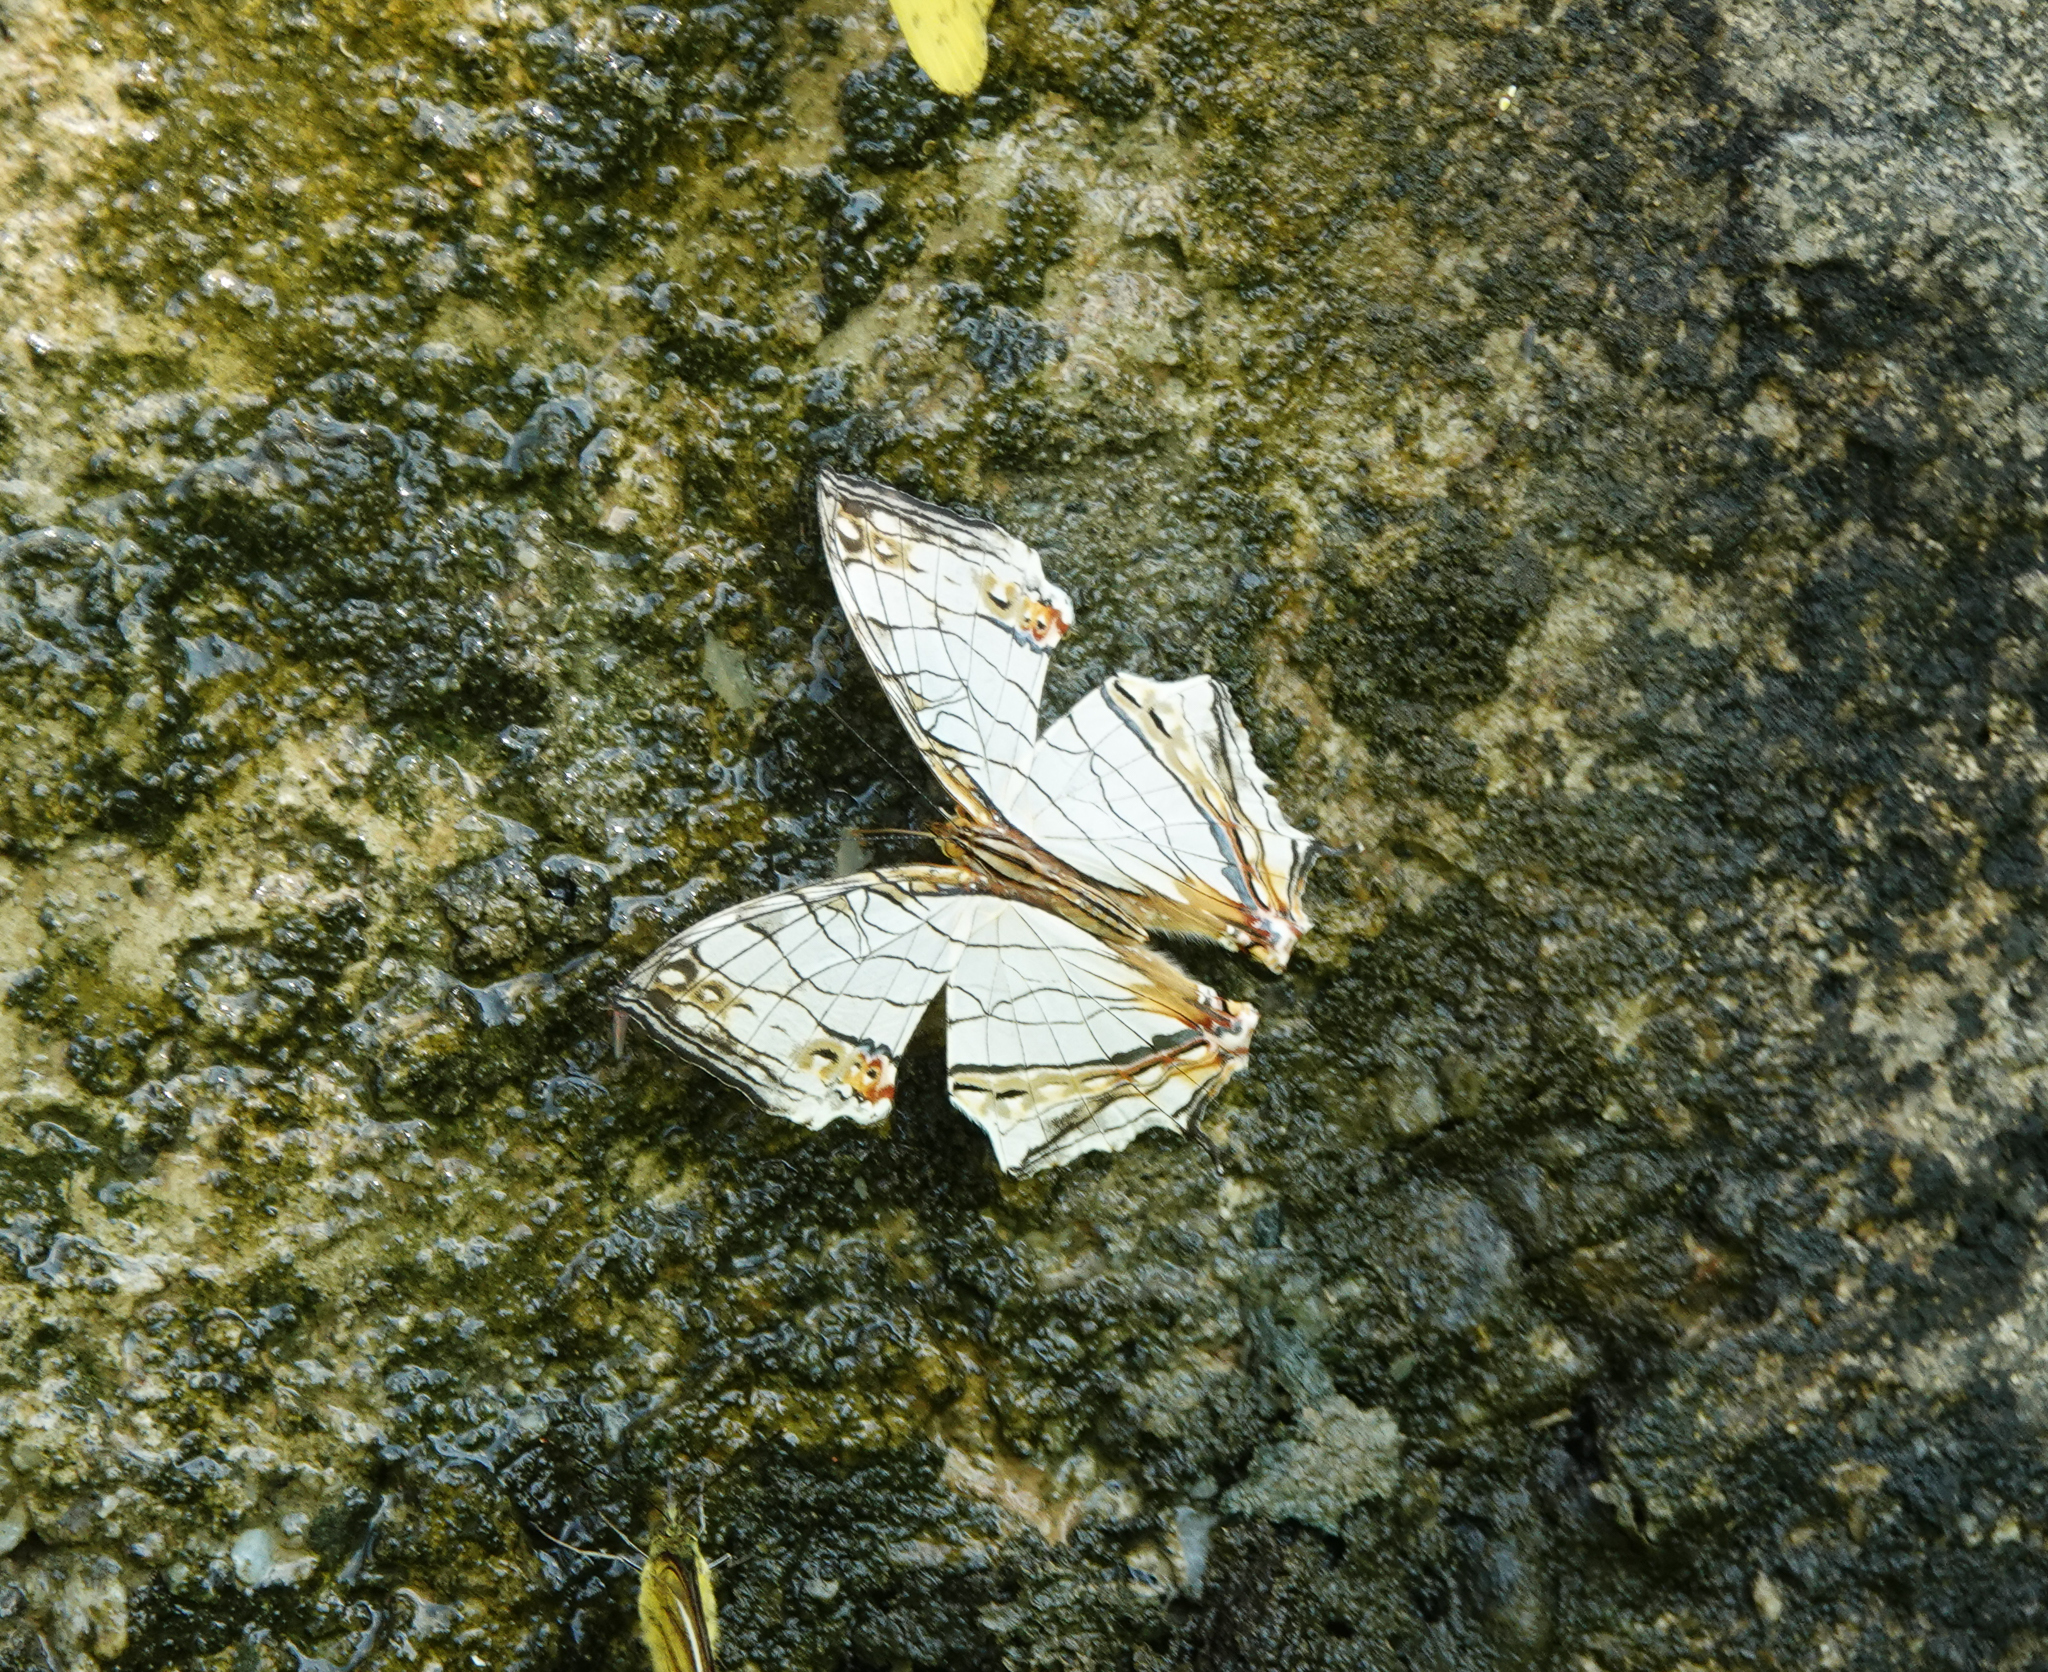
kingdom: Animalia
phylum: Arthropoda
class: Insecta
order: Lepidoptera
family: Nymphalidae
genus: Cyrestis
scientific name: Cyrestis thyodamas
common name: Common mapwing
